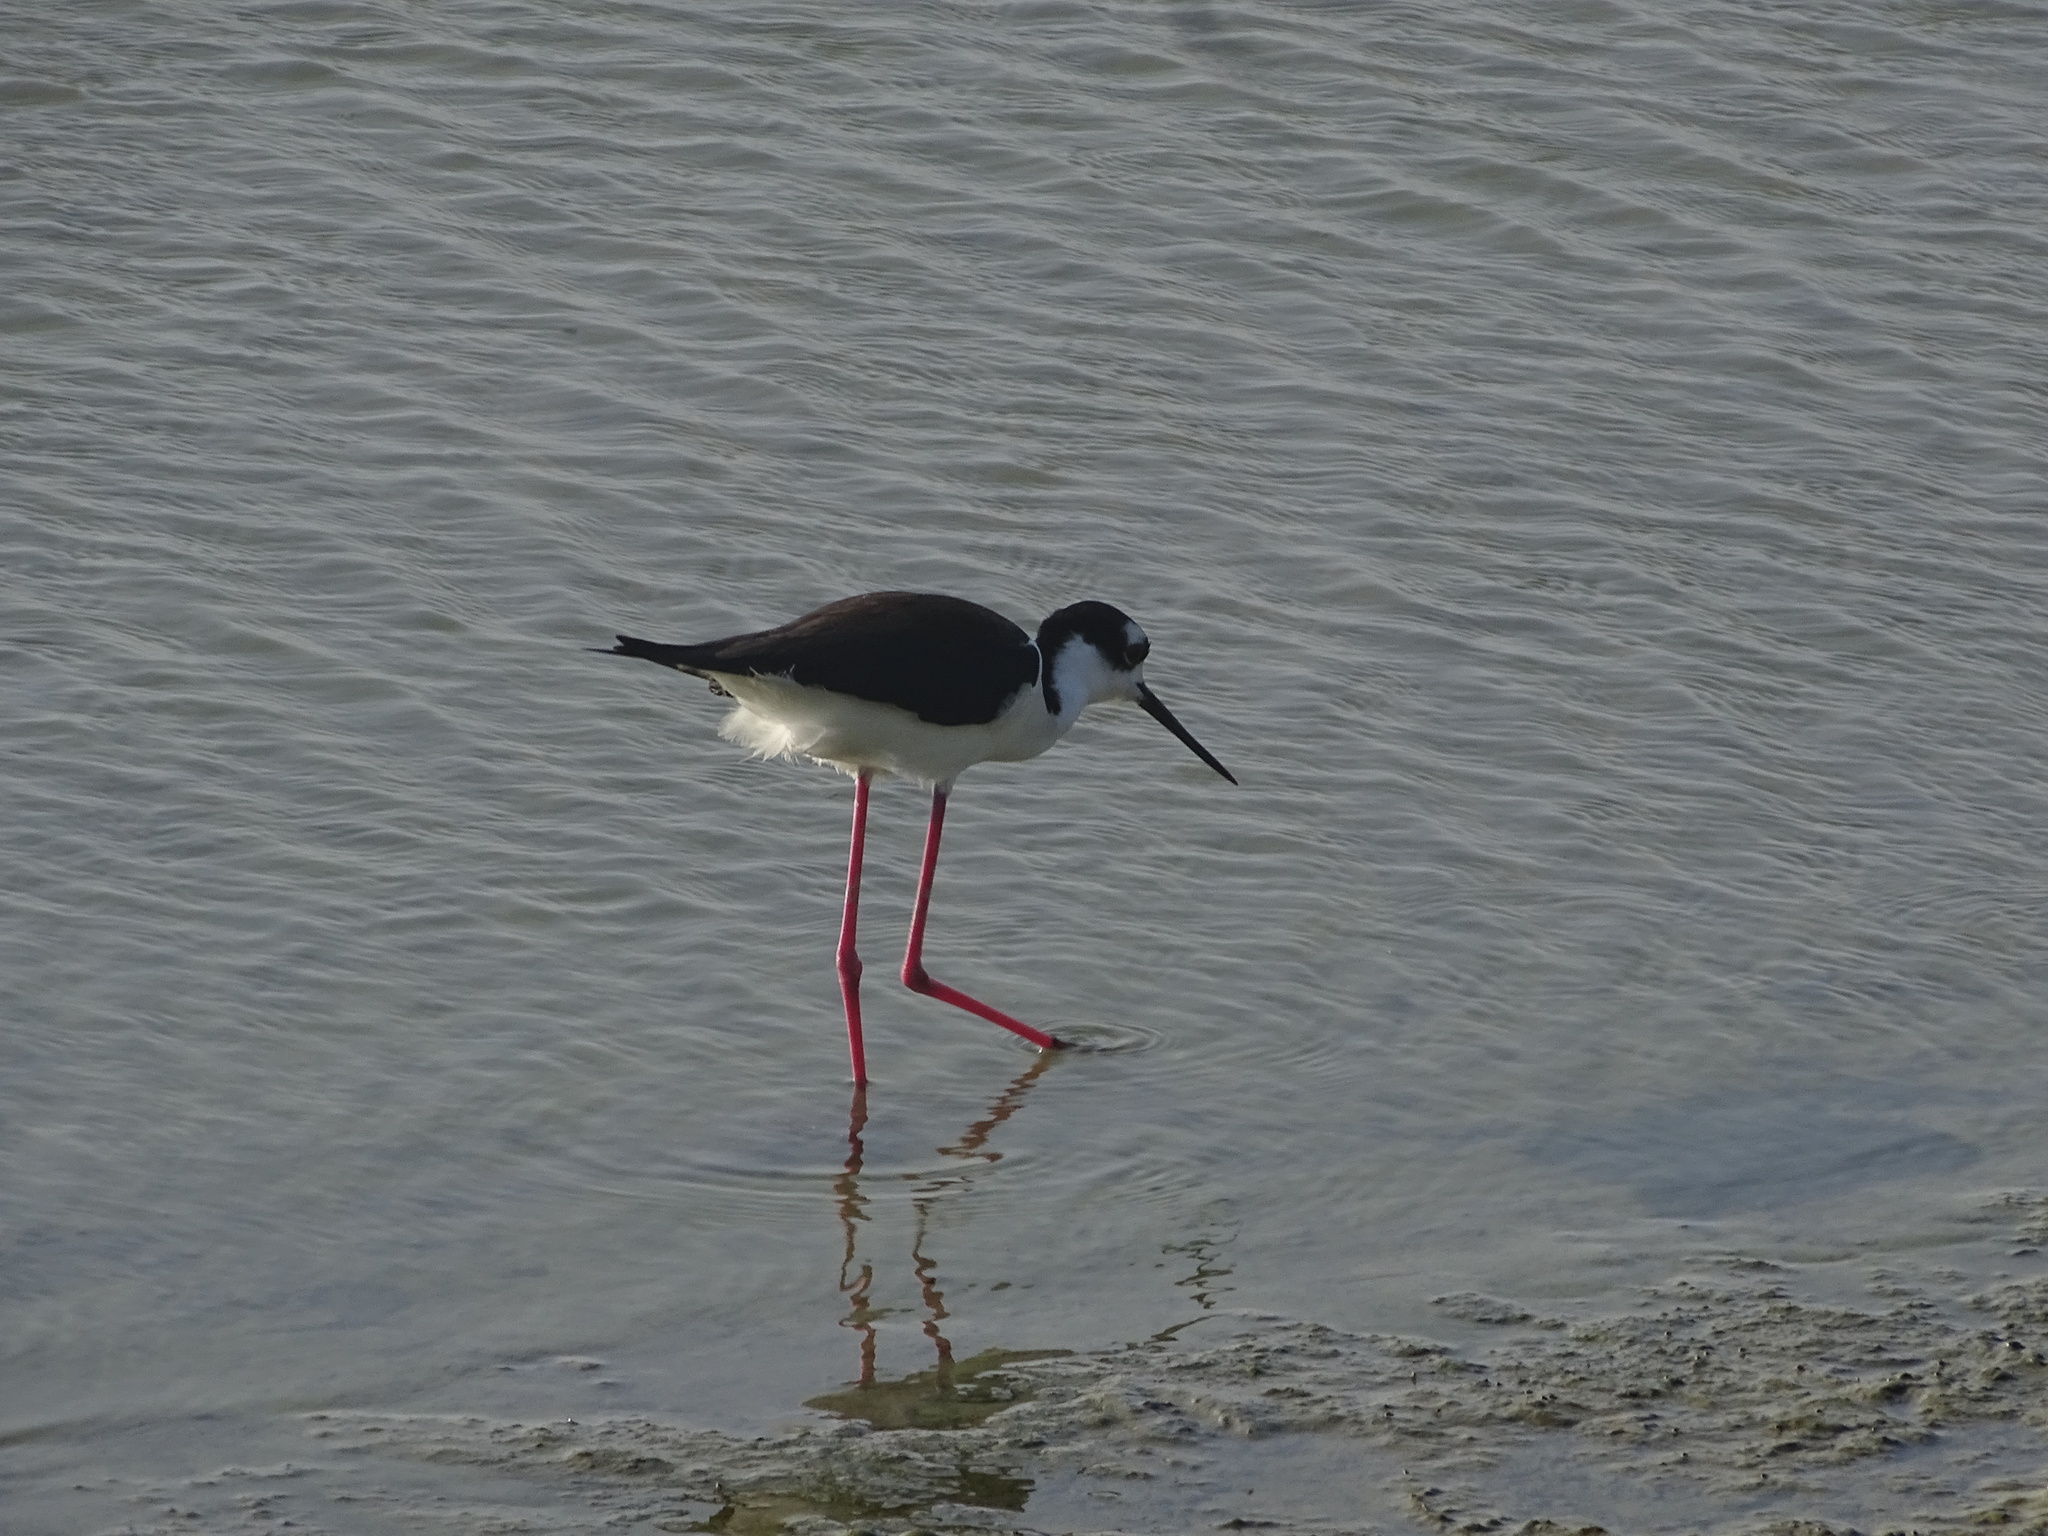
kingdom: Animalia
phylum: Chordata
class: Aves
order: Charadriiformes
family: Recurvirostridae
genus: Himantopus
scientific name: Himantopus mexicanus
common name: Black-necked stilt
